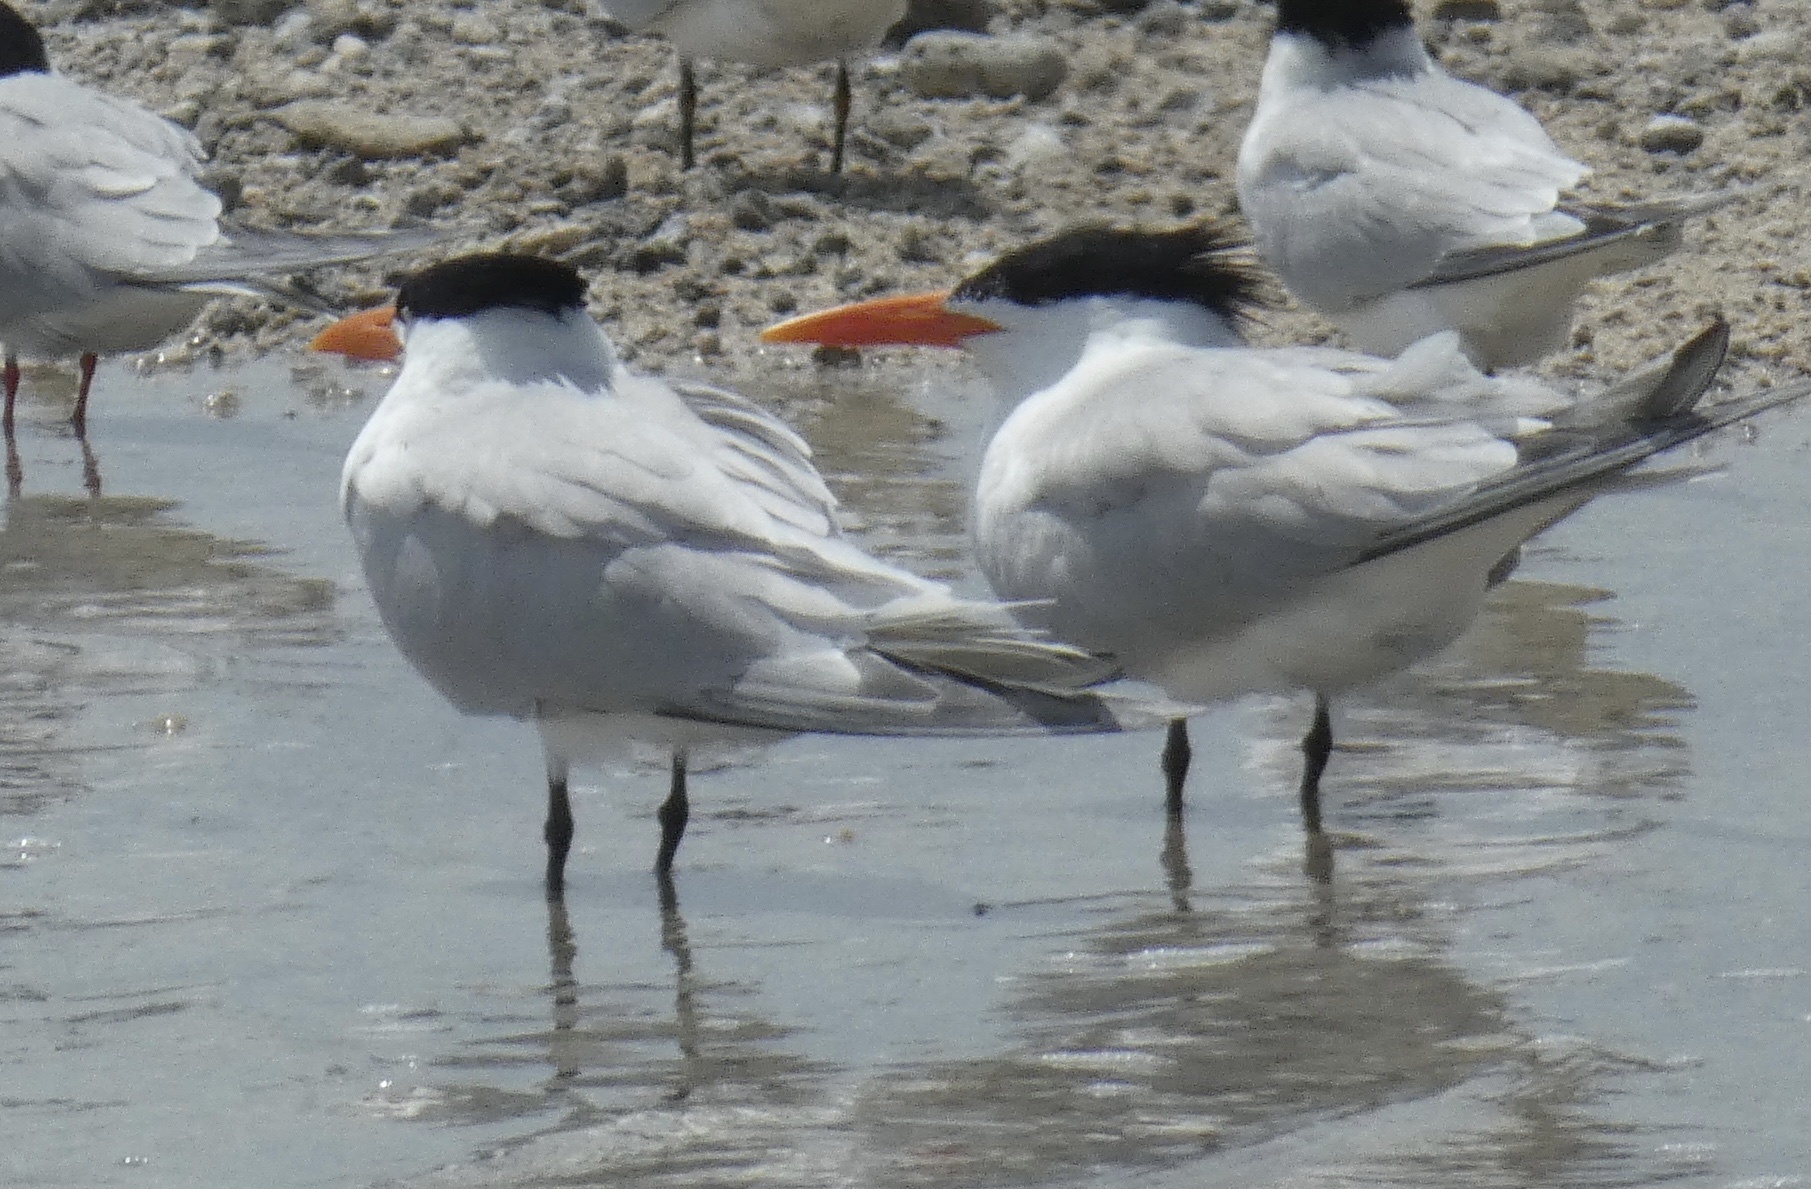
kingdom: Animalia
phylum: Chordata
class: Aves
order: Charadriiformes
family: Laridae
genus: Thalasseus
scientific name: Thalasseus maximus
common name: Royal tern
